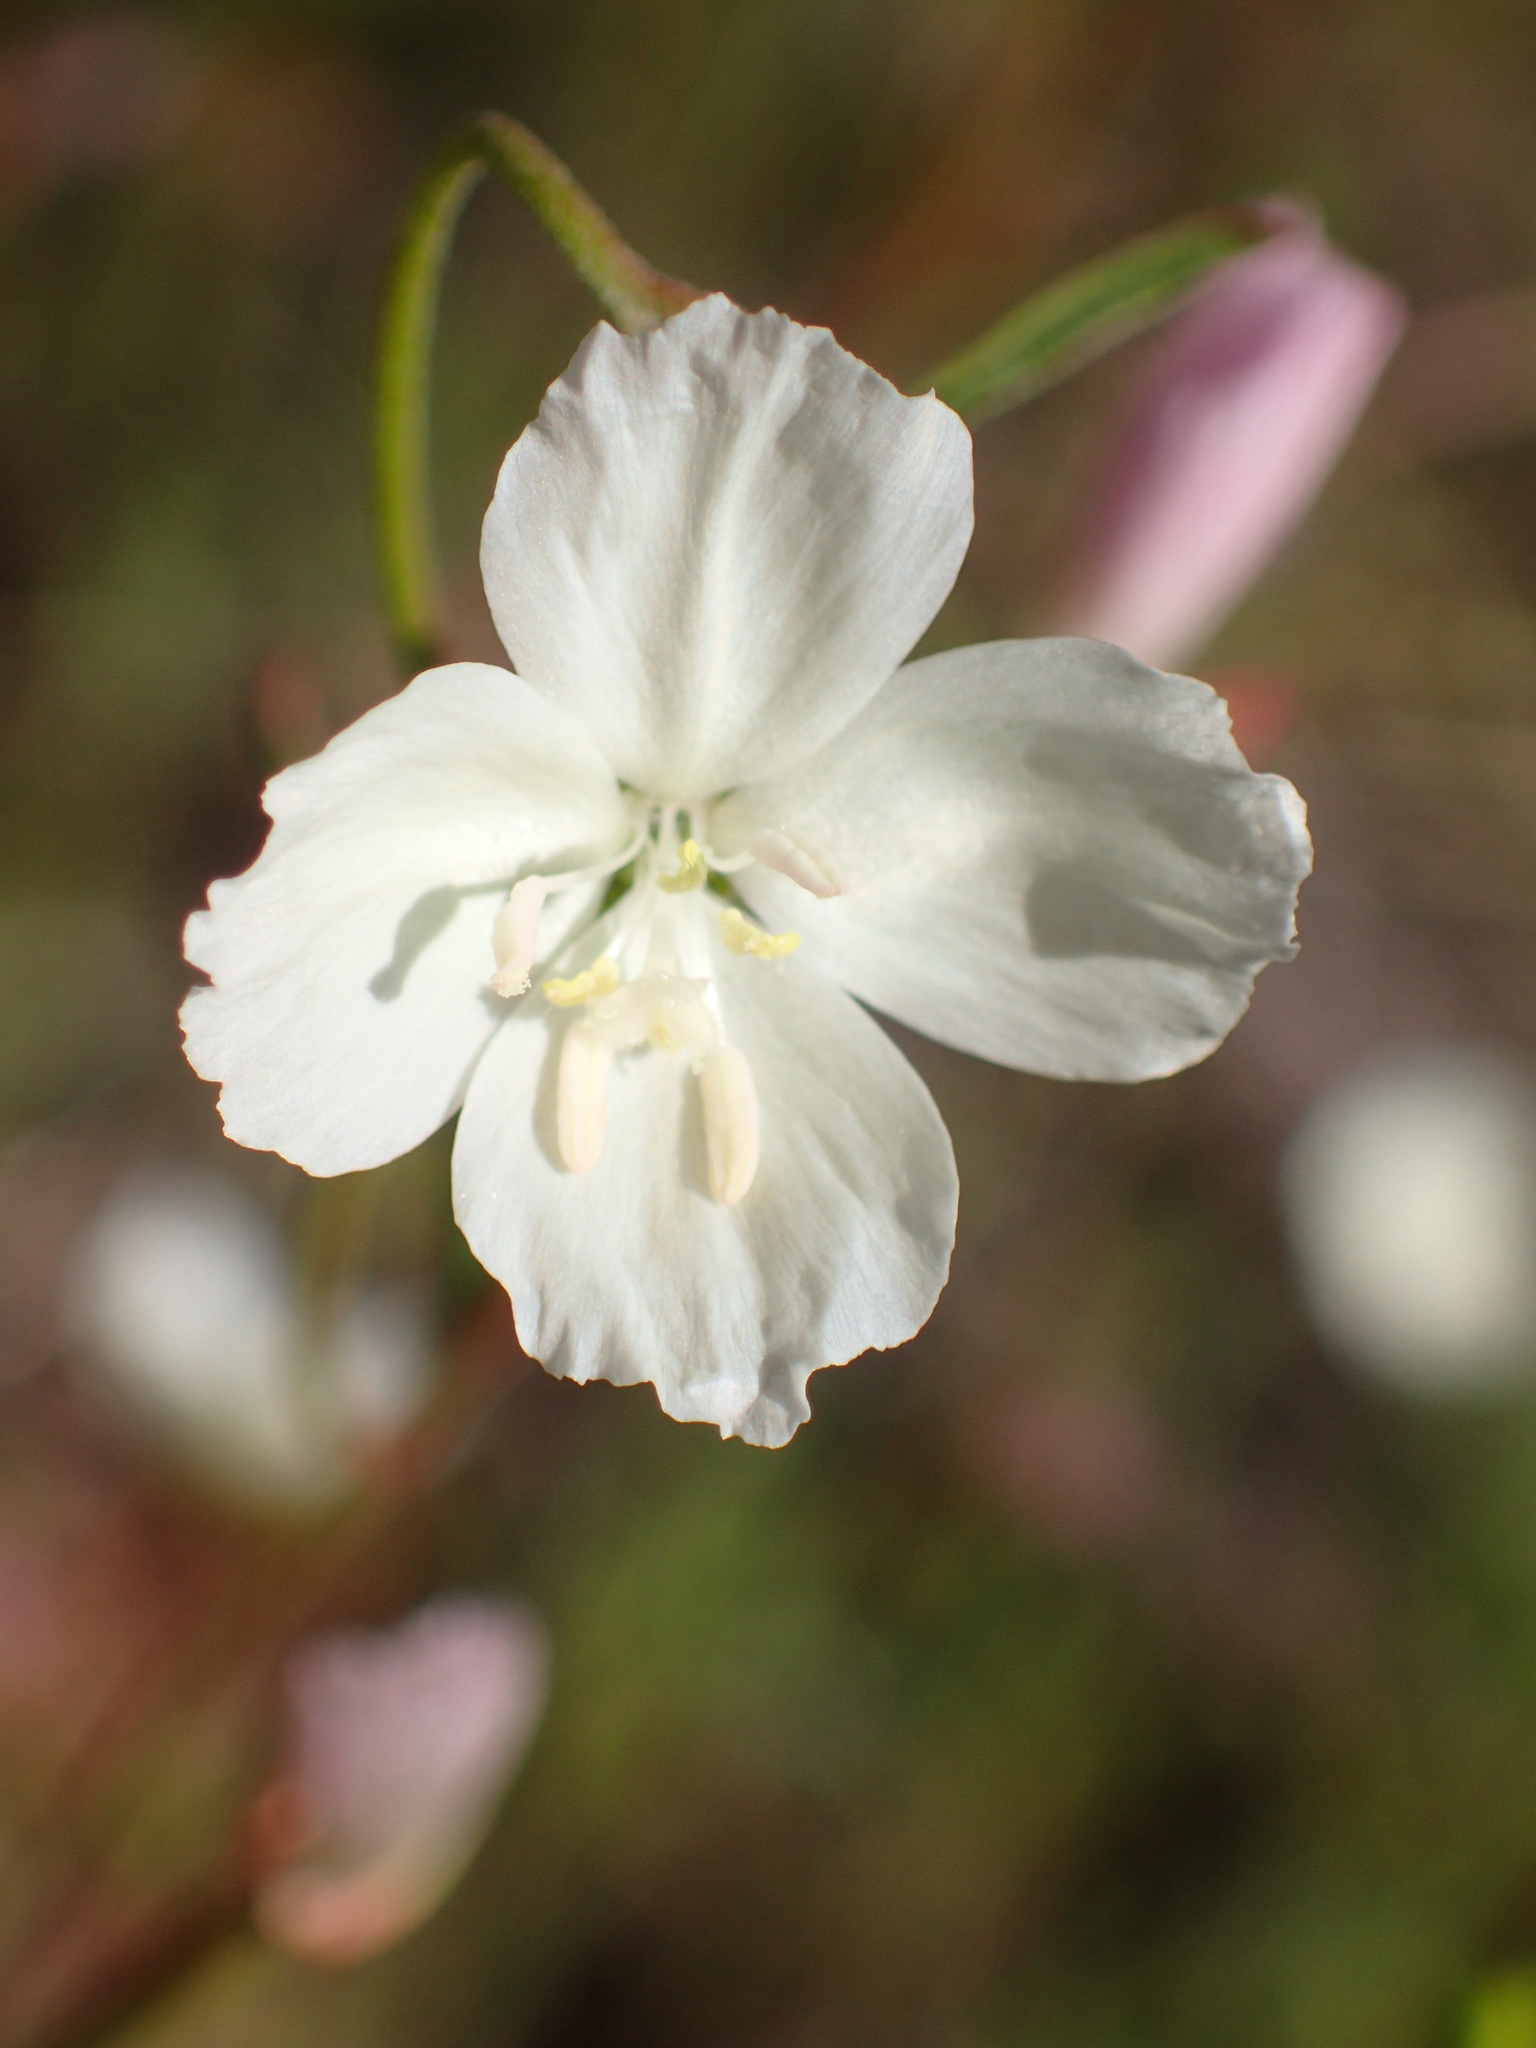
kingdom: Plantae
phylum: Tracheophyta
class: Magnoliopsida
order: Myrtales
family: Onagraceae
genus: Clarkia
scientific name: Clarkia epilobioides
